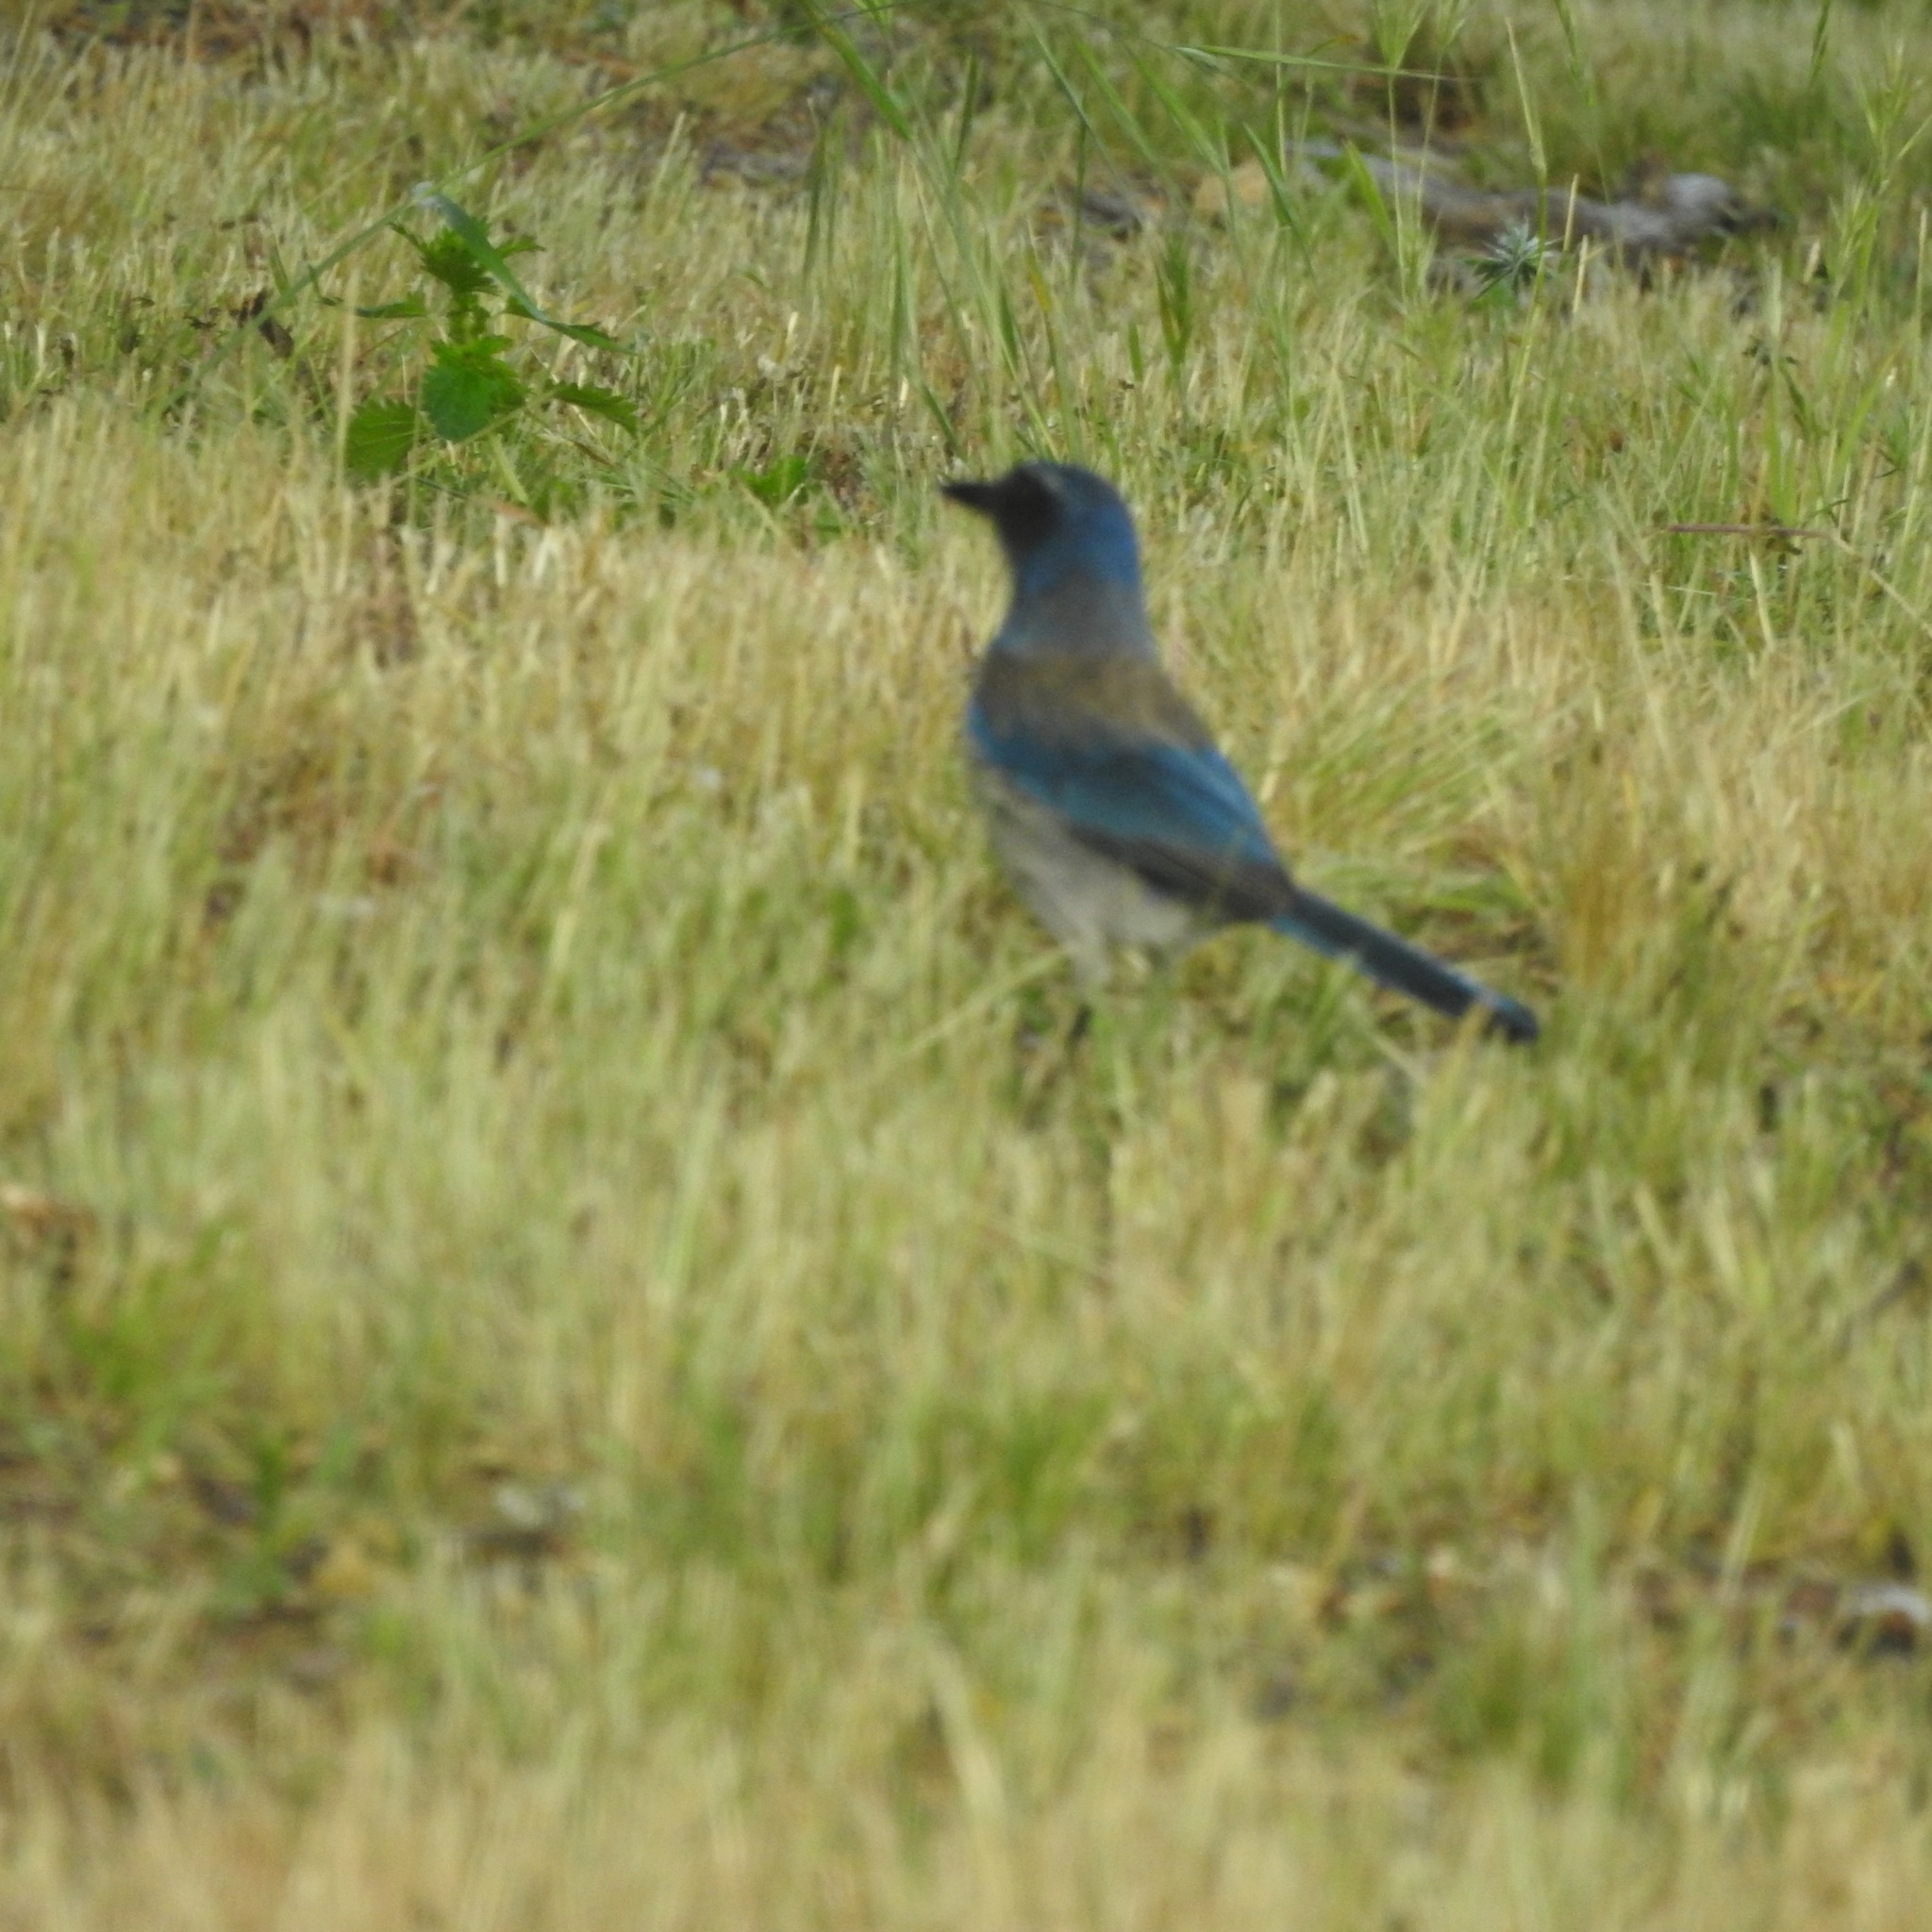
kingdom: Animalia
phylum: Chordata
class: Aves
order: Passeriformes
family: Corvidae
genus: Aphelocoma
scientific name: Aphelocoma californica
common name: California scrub-jay
